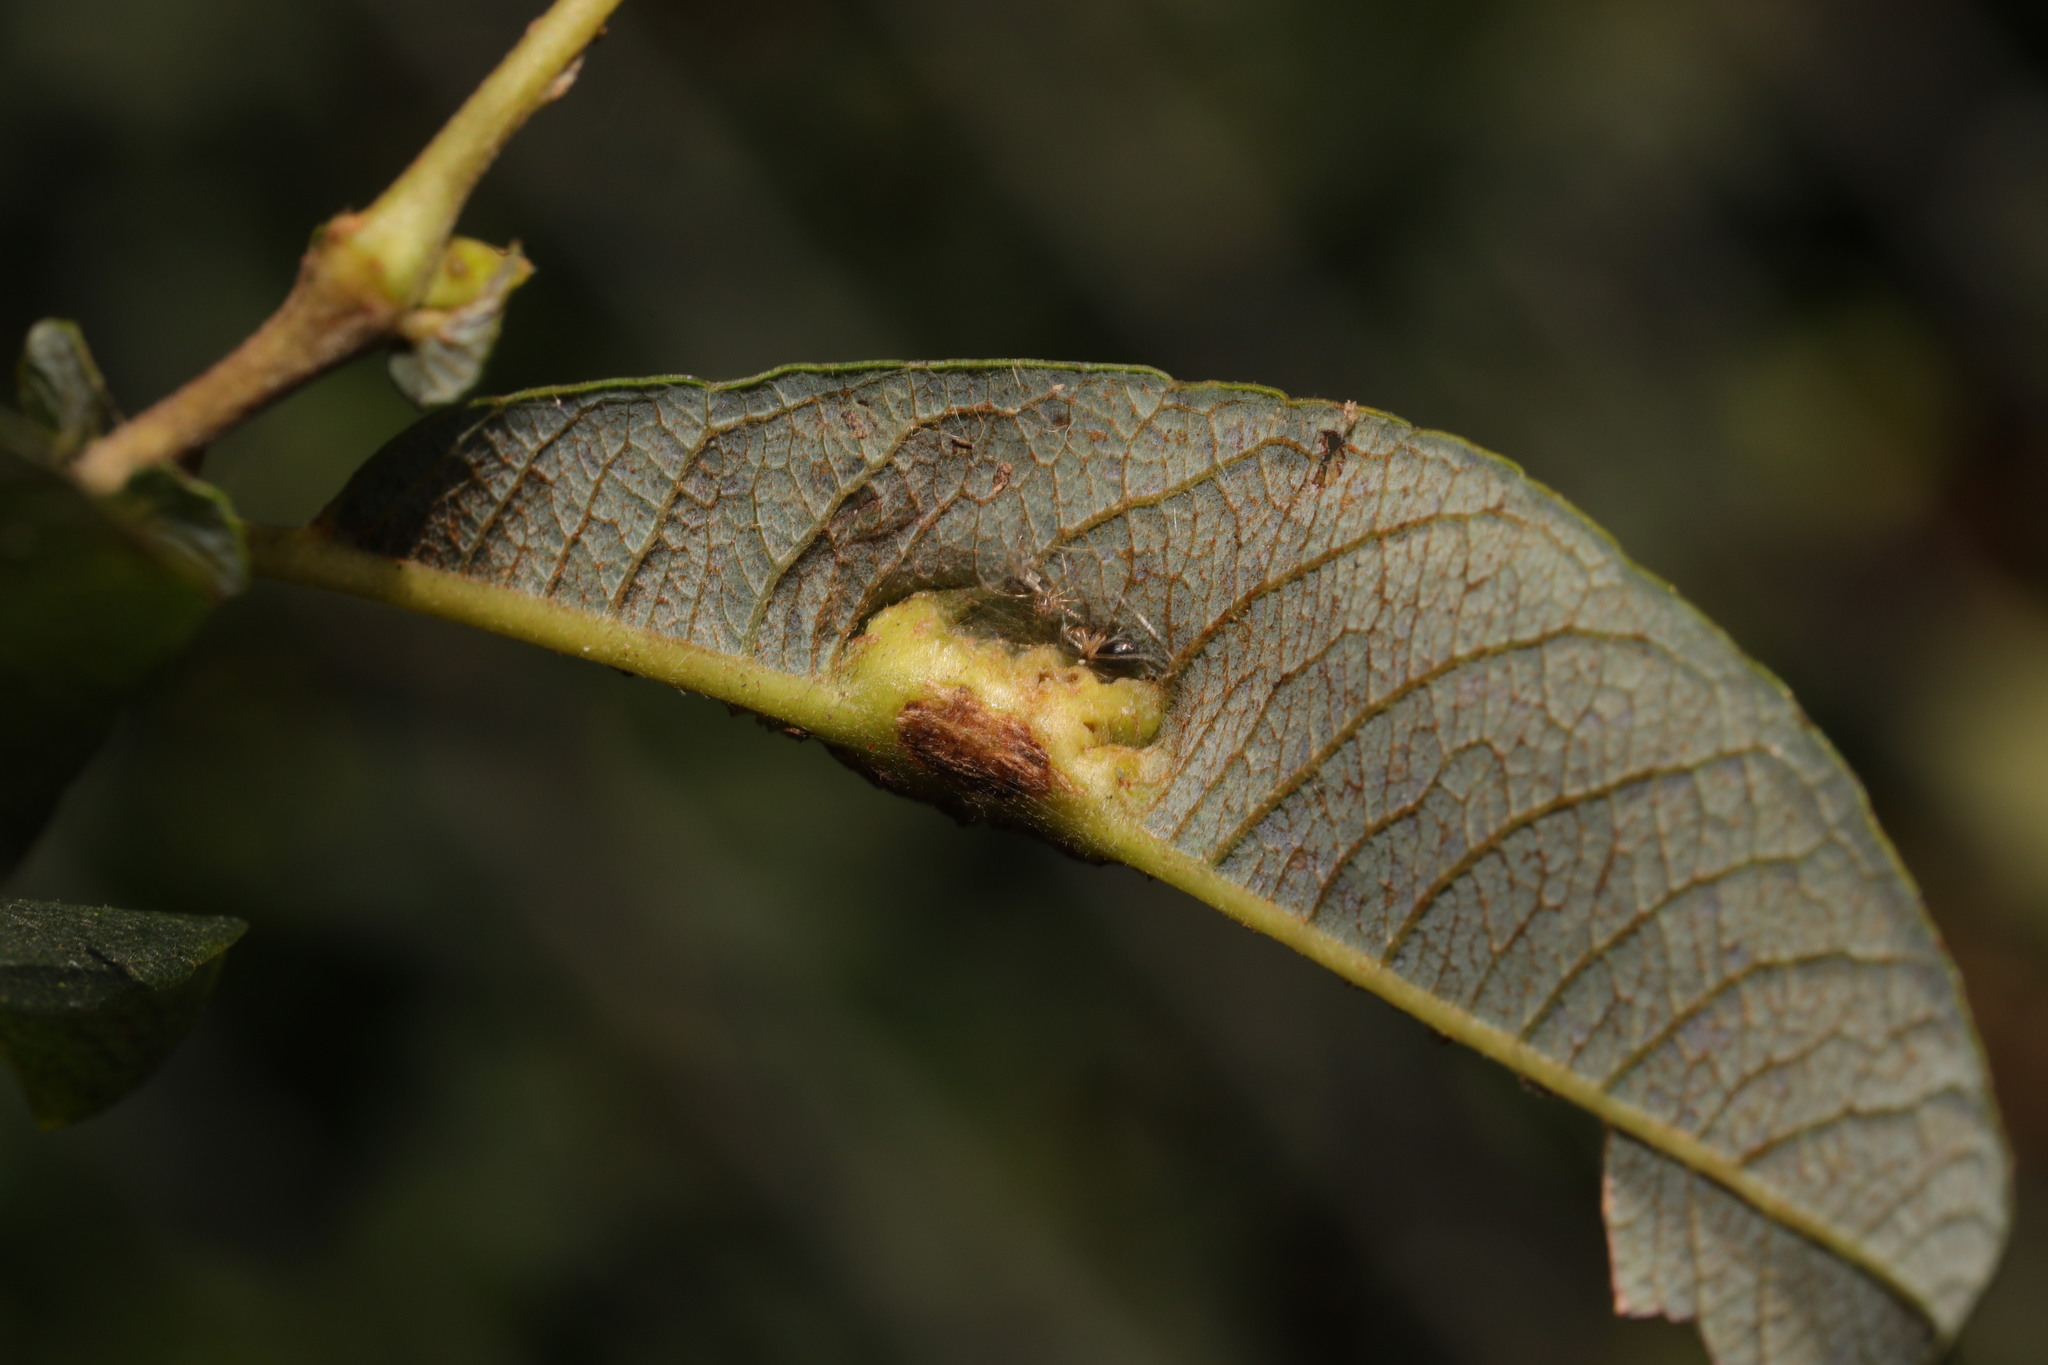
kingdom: Animalia
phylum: Arthropoda
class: Insecta
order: Diptera
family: Cecidomyiidae
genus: Iteomyia
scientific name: Iteomyia major
